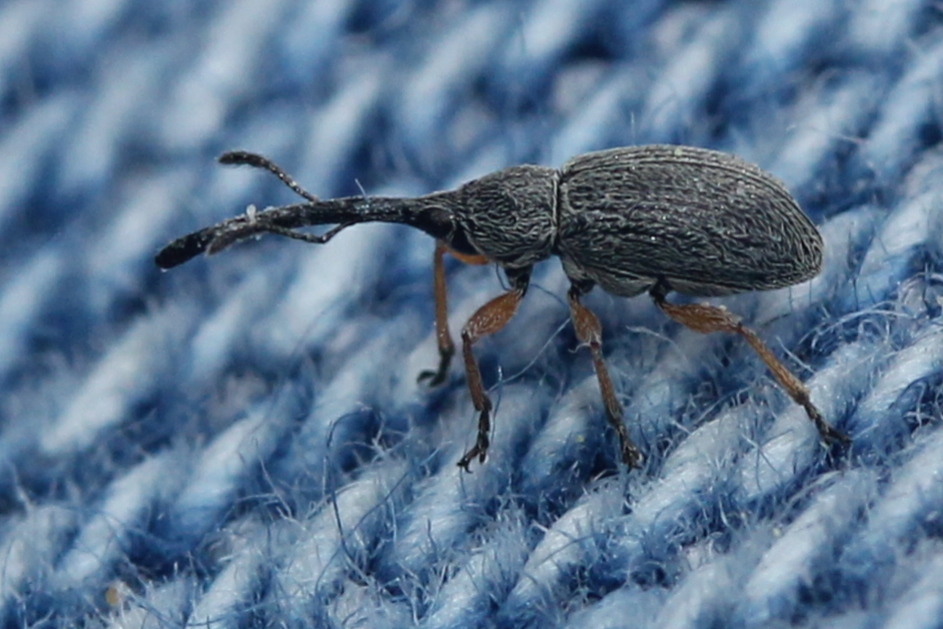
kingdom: Animalia
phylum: Arthropoda
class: Insecta
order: Coleoptera
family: Brentidae
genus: Rhopalapion
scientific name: Rhopalapion longirostre
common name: Hollyhock weevil
